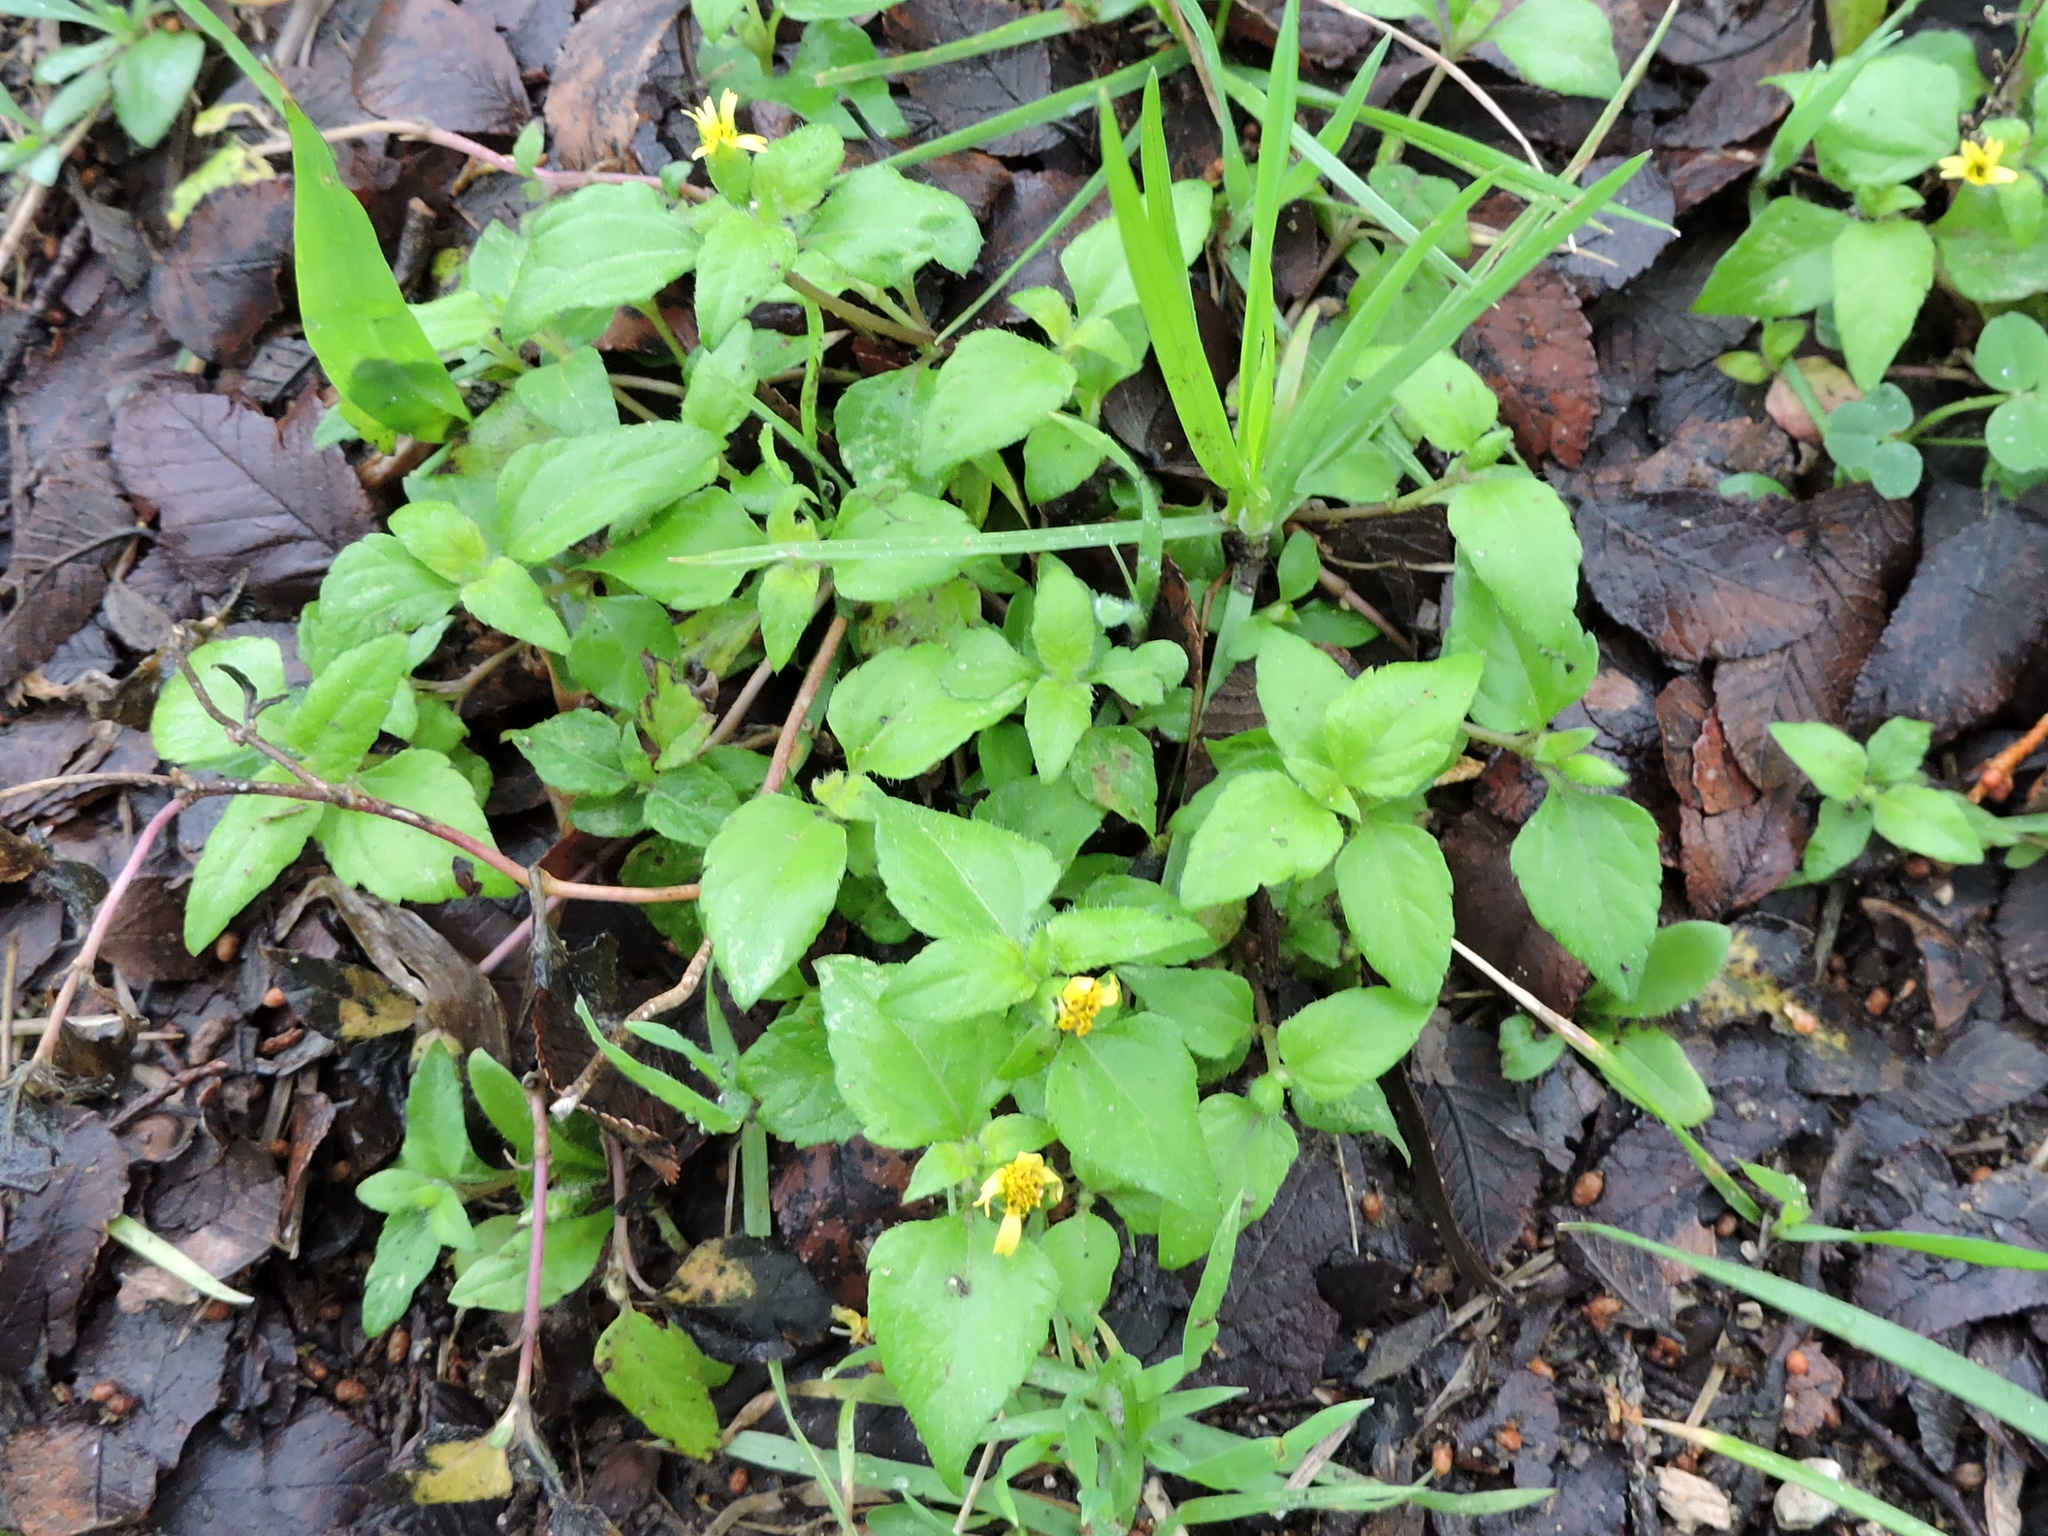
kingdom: Plantae
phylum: Tracheophyta
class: Magnoliopsida
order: Asterales
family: Asteraceae
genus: Calyptocarpus
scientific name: Calyptocarpus vialis
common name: Straggler daisy
